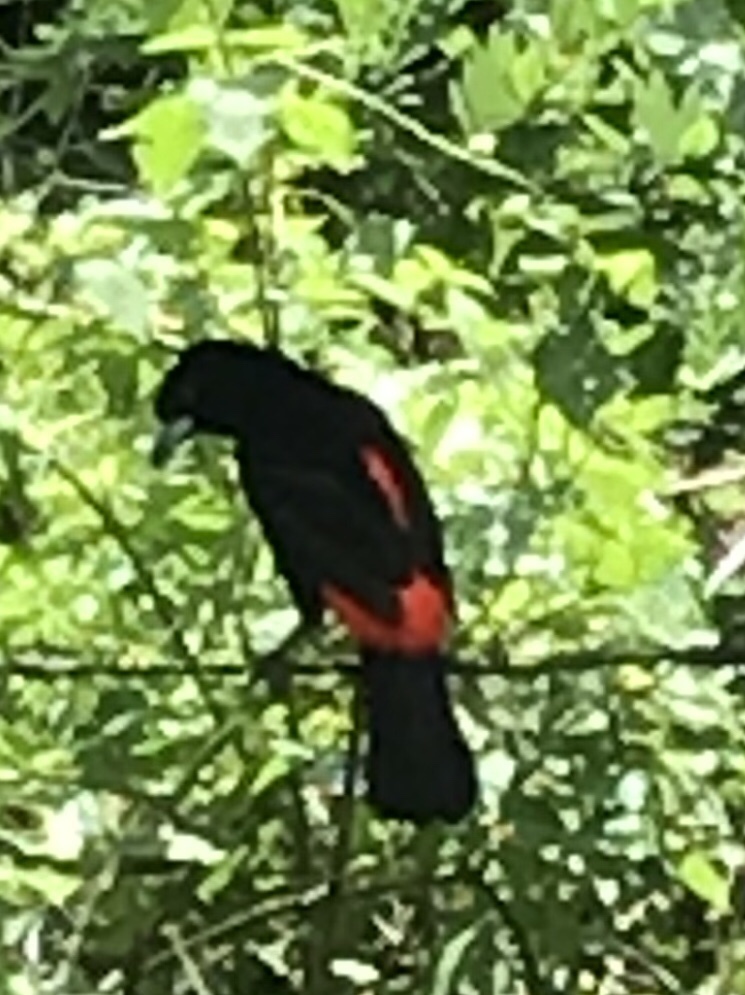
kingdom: Animalia
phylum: Chordata
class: Aves
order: Passeriformes
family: Thraupidae
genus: Ramphocelus
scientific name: Ramphocelus passerinii
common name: Passerini's tanager
